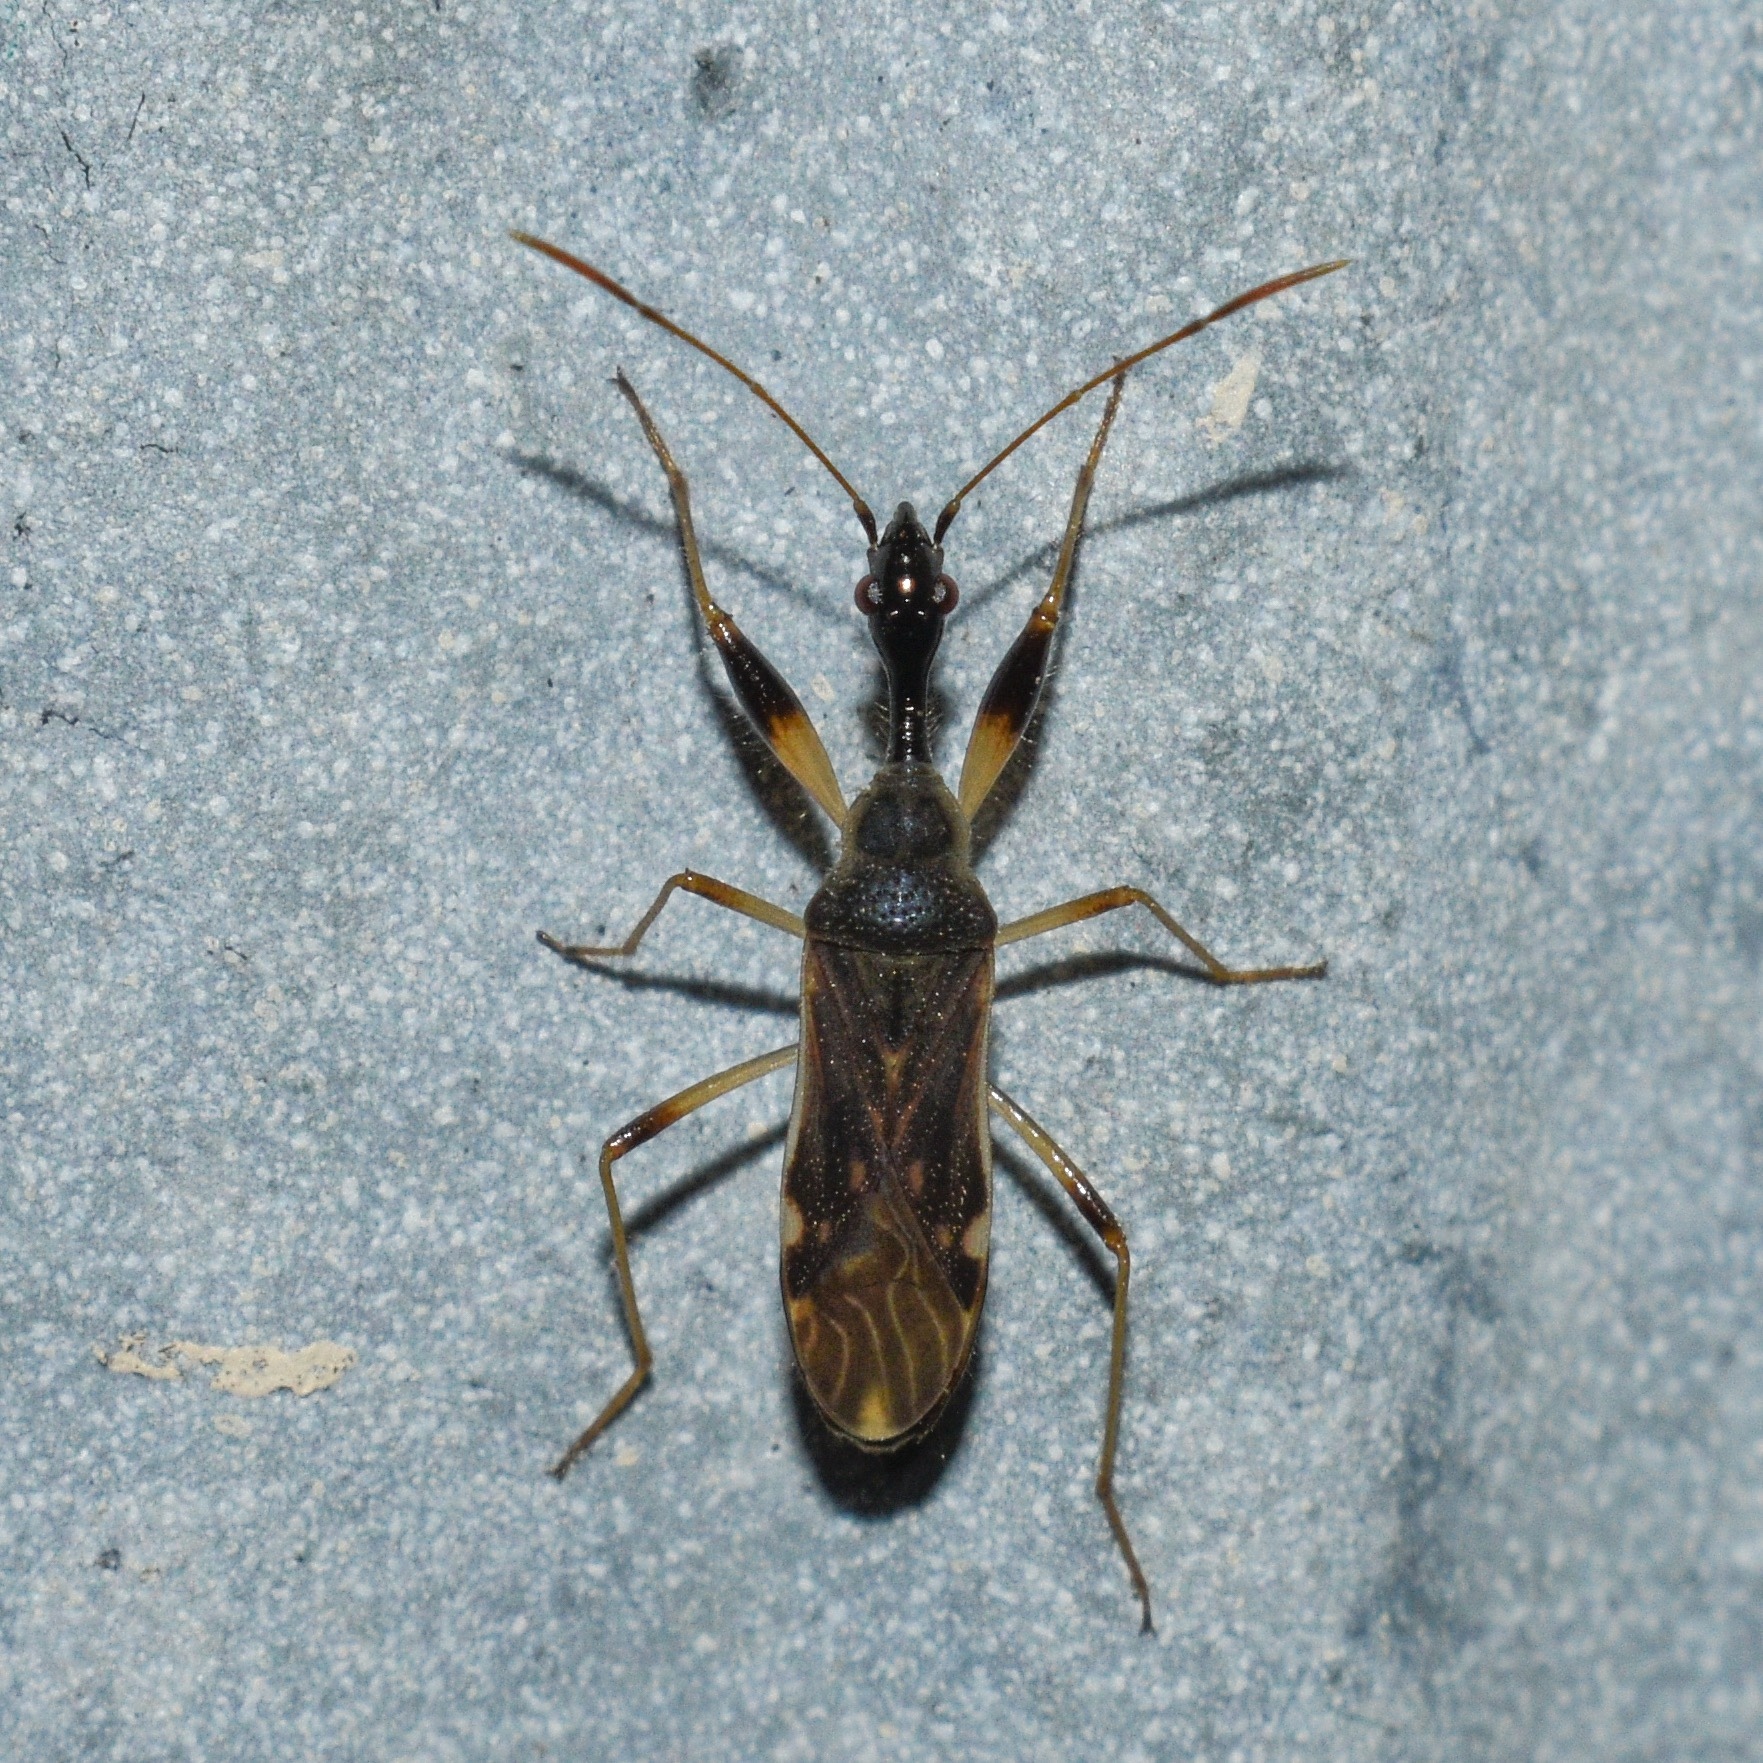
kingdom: Animalia
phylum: Arthropoda
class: Insecta
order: Hemiptera
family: Rhyparochromidae
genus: Myodocha
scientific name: Myodocha serripes
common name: Long-necked seed bug
